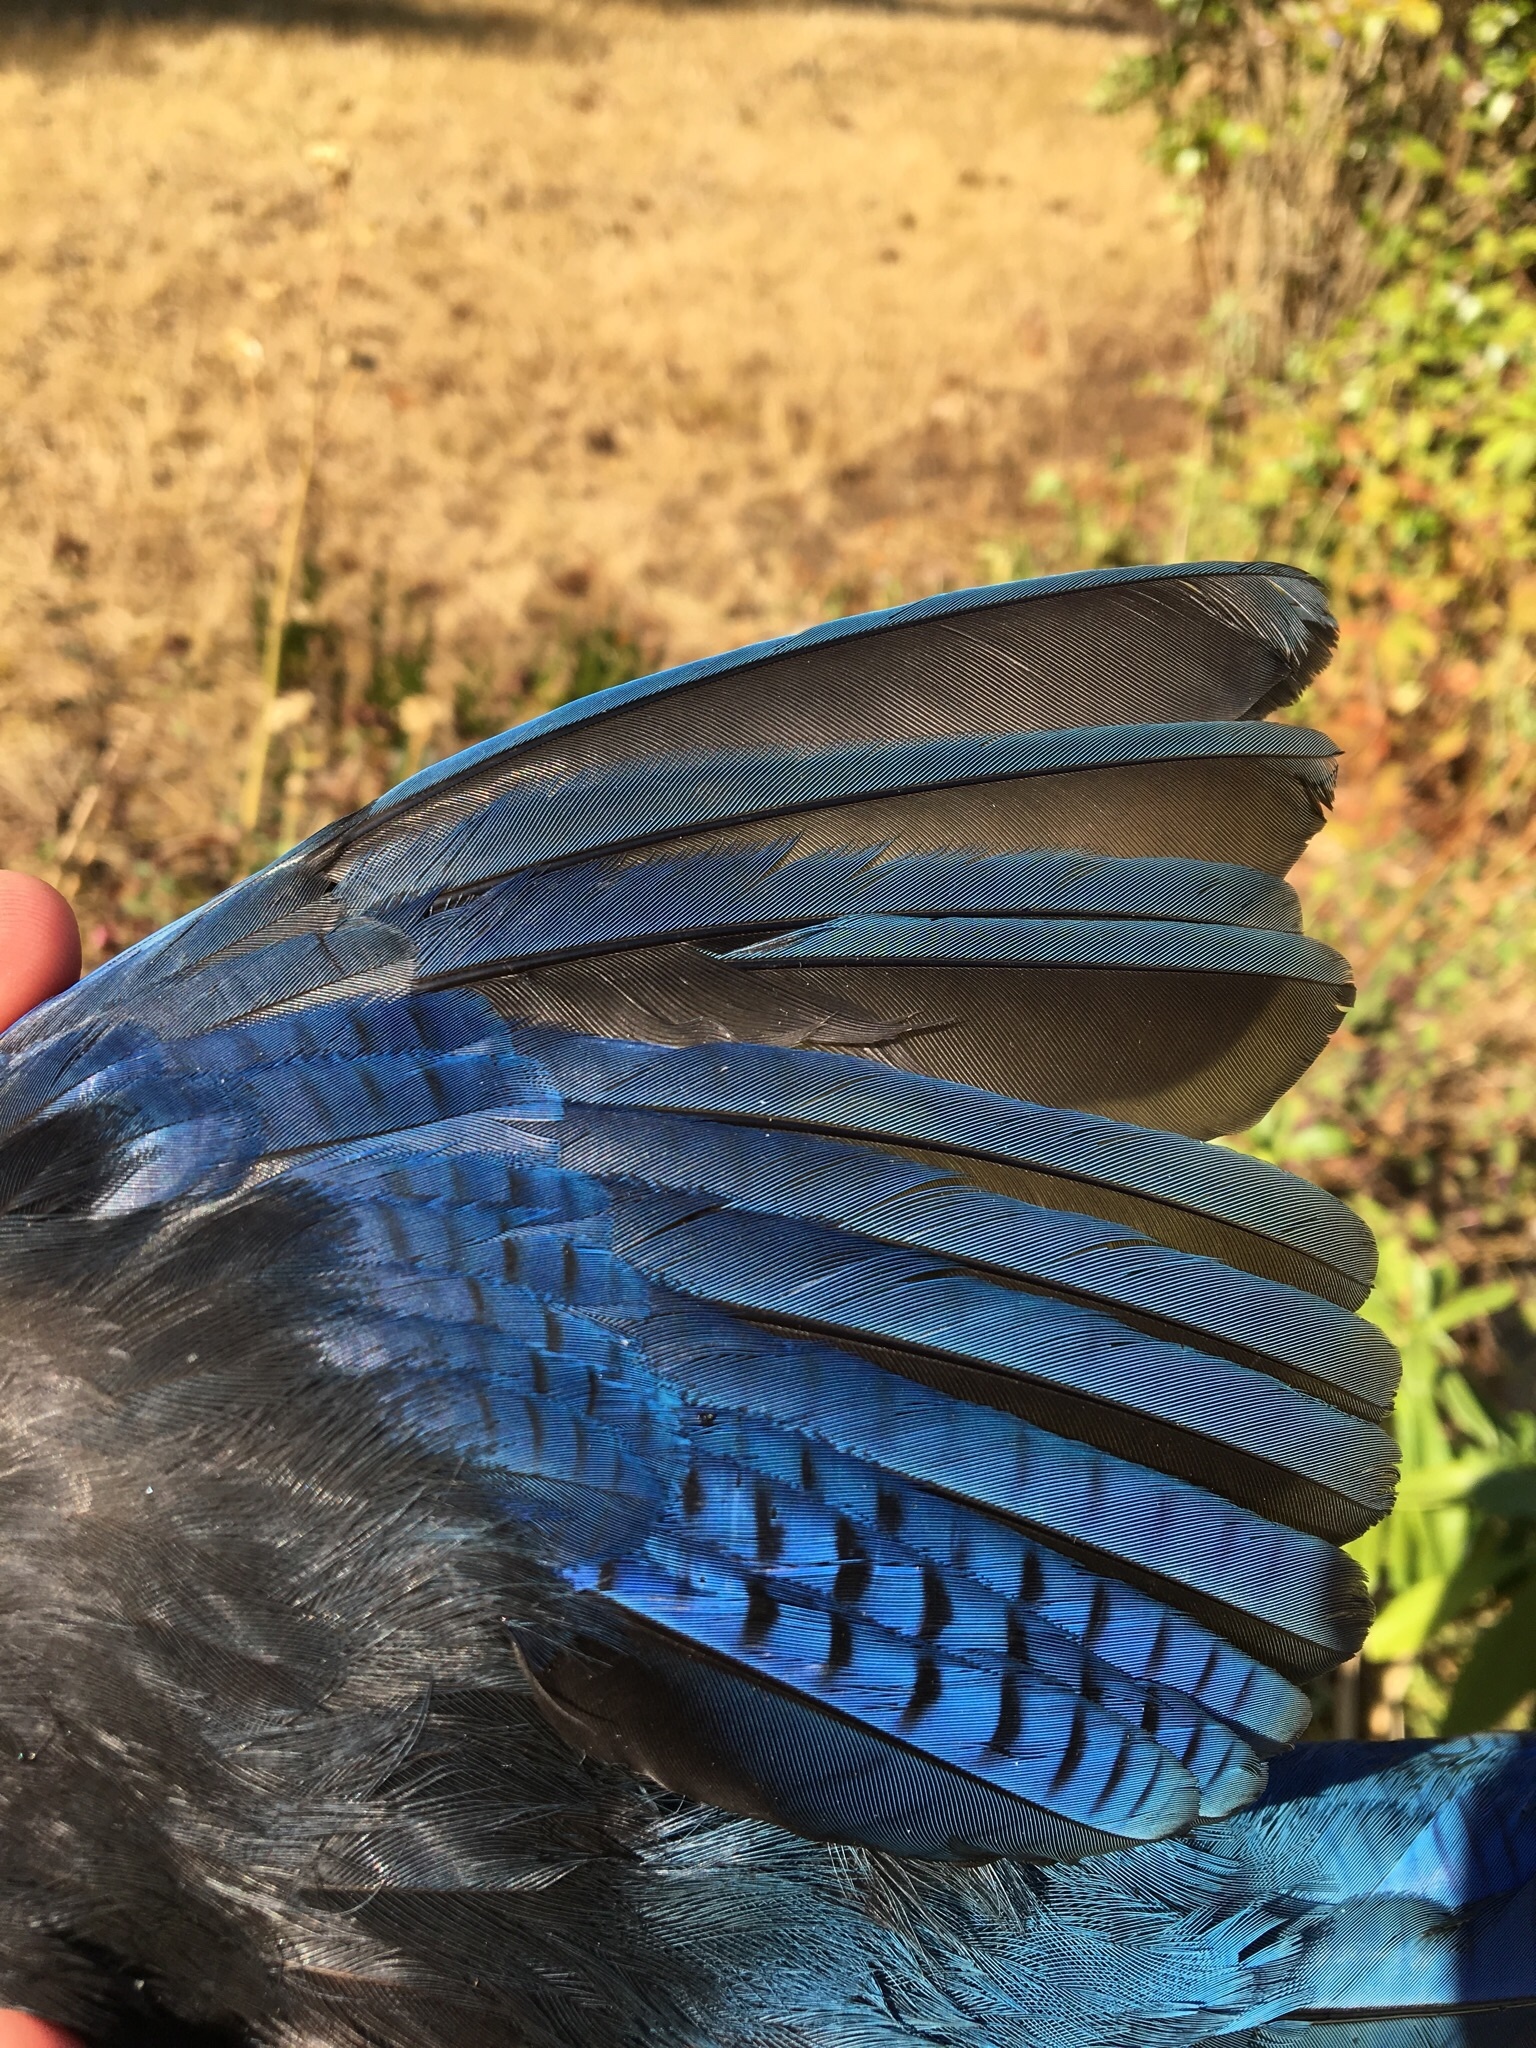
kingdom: Animalia
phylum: Chordata
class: Aves
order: Passeriformes
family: Corvidae
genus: Cyanocitta
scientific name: Cyanocitta stelleri
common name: Steller's jay
